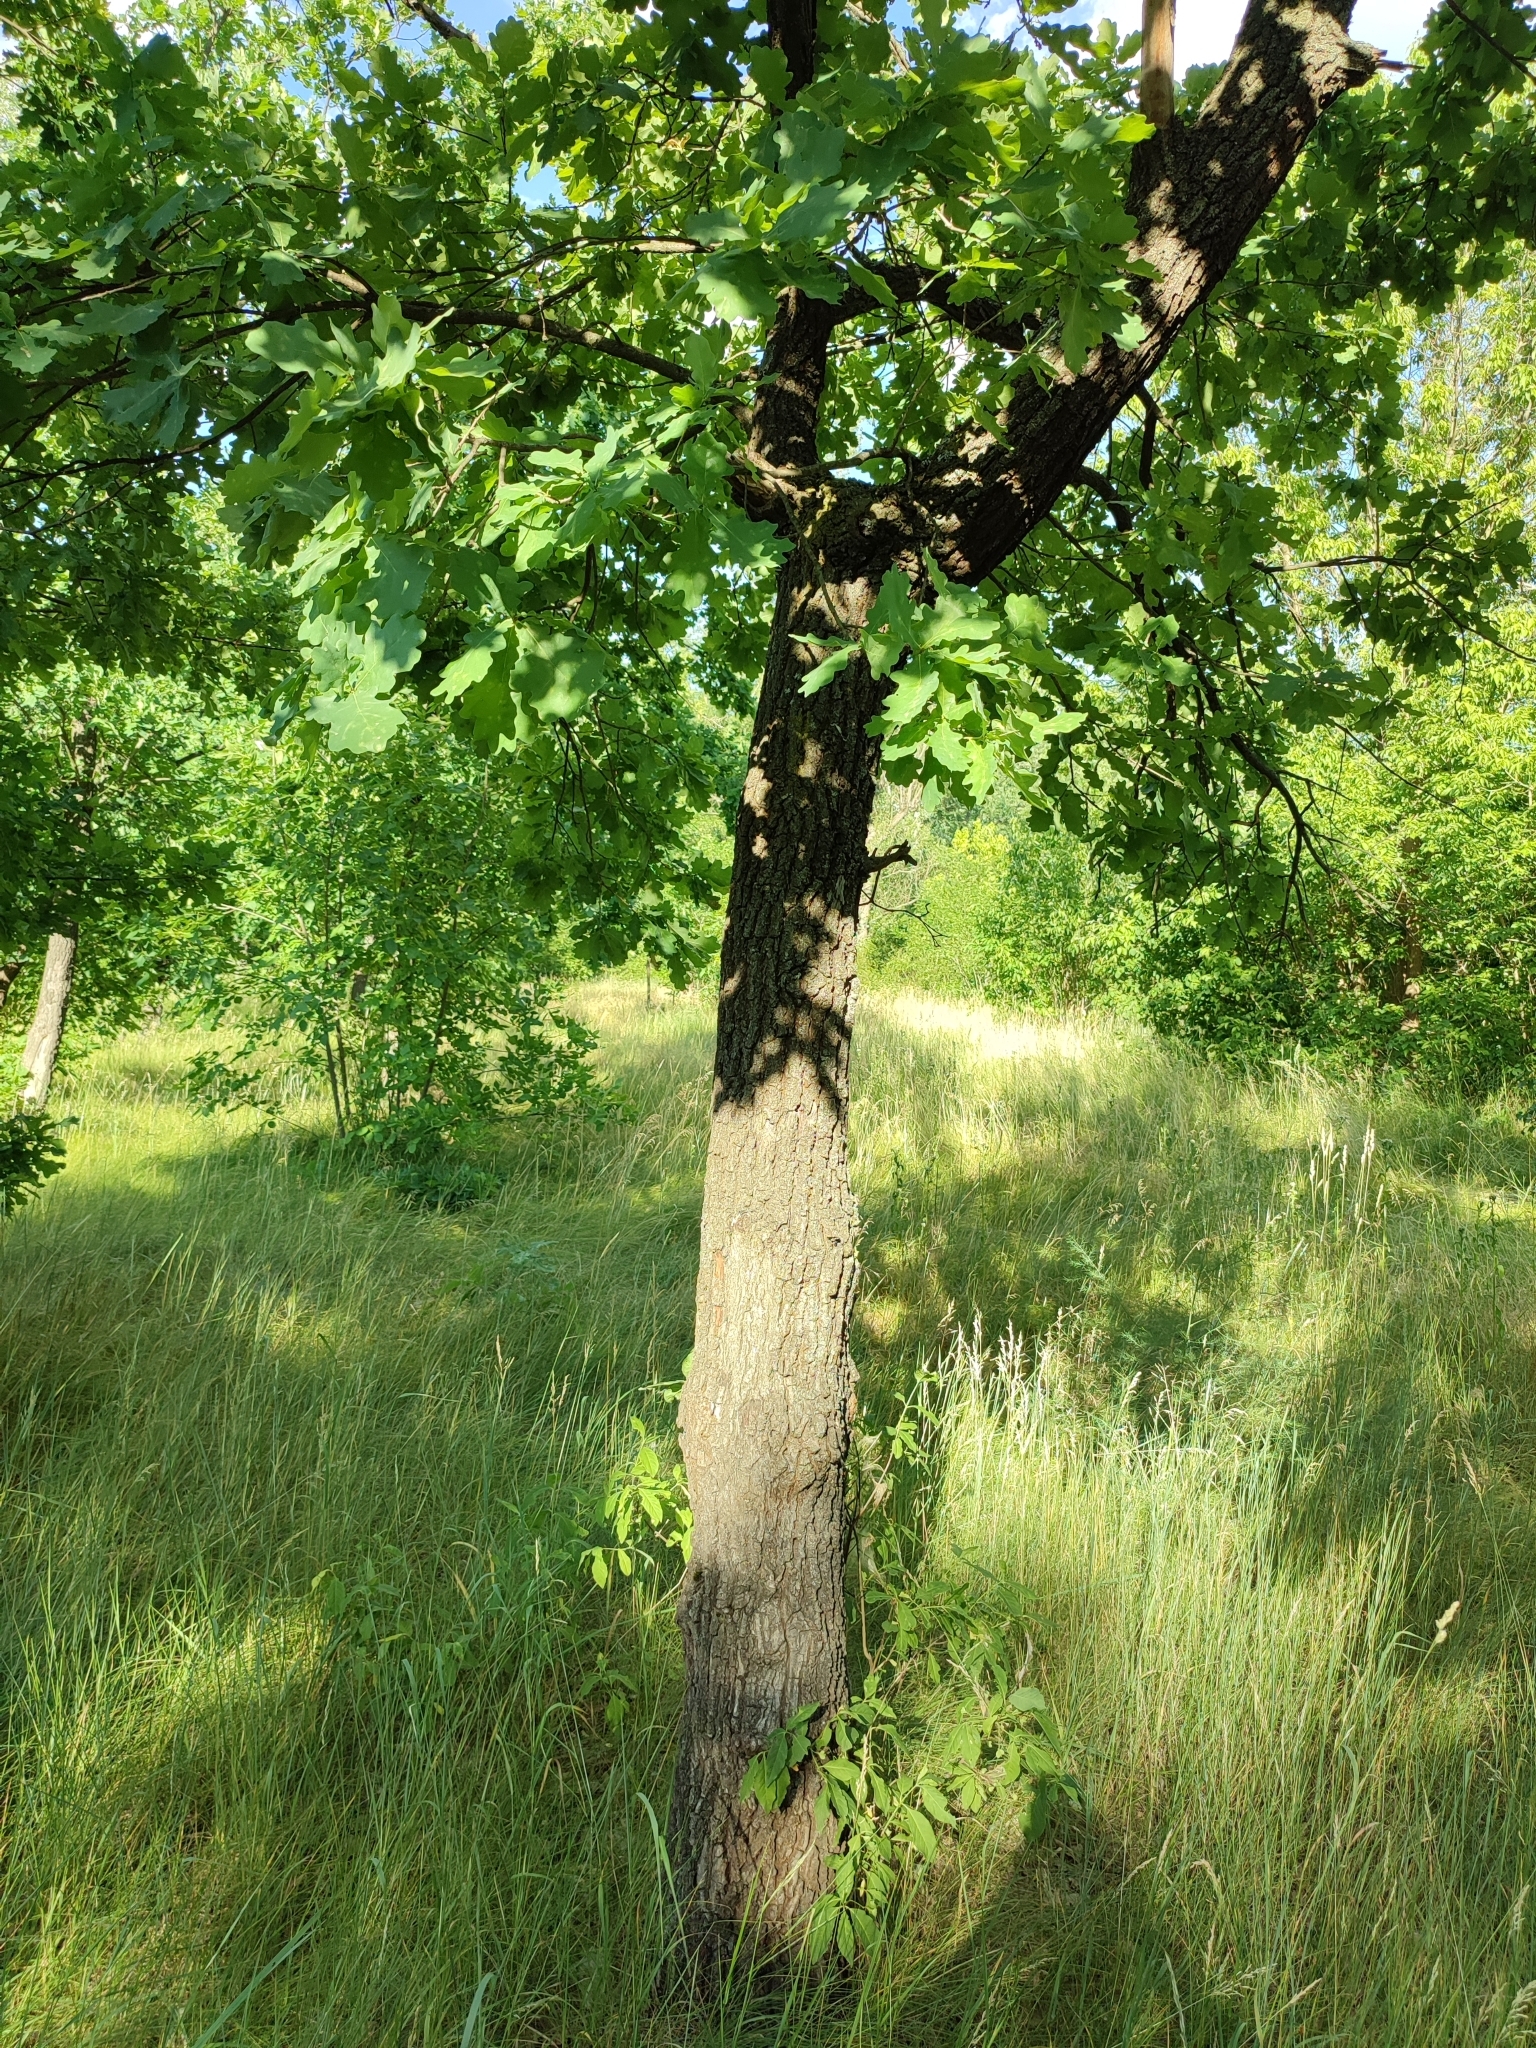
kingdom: Plantae
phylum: Tracheophyta
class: Magnoliopsida
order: Fagales
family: Fagaceae
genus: Quercus
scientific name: Quercus robur
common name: Pedunculate oak
